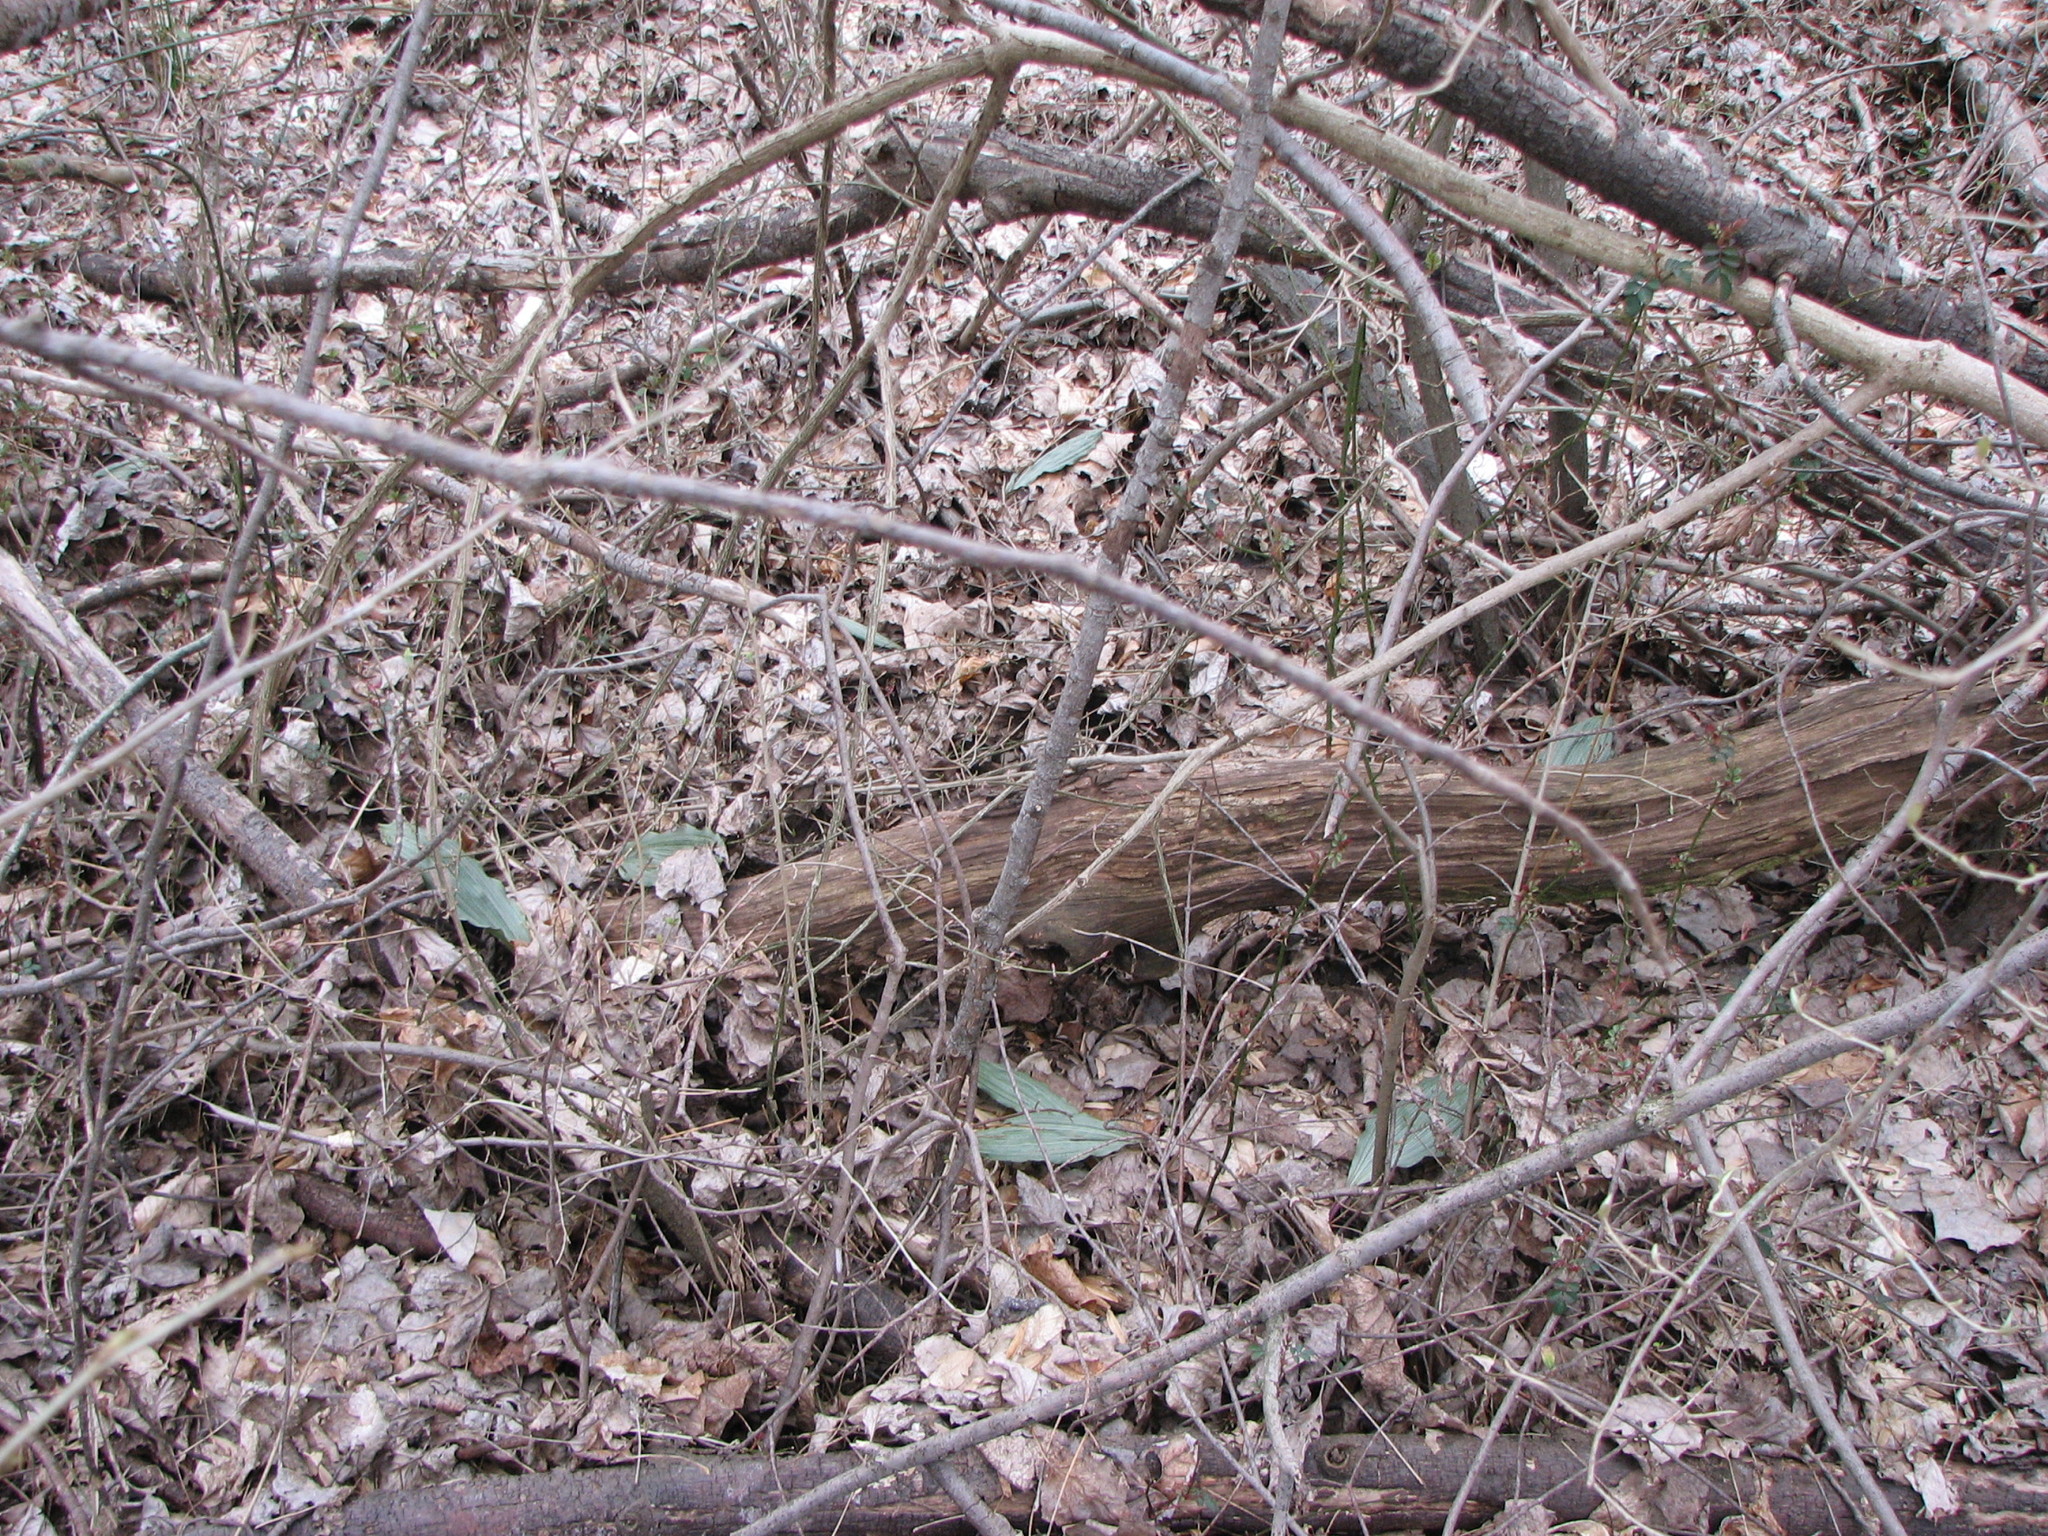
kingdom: Plantae
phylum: Tracheophyta
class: Liliopsida
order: Asparagales
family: Orchidaceae
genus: Aplectrum
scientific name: Aplectrum hyemale
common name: Adam-and-eve
